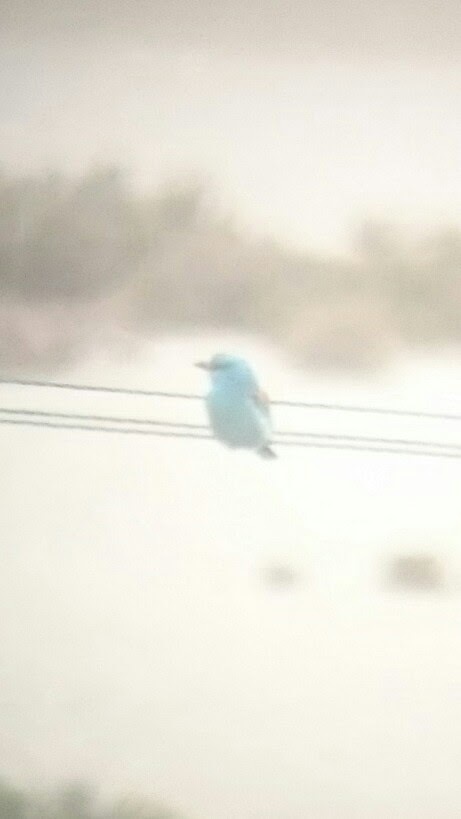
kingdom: Animalia
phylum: Chordata
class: Aves
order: Coraciiformes
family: Coraciidae
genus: Coracias
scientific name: Coracias garrulus
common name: European roller
